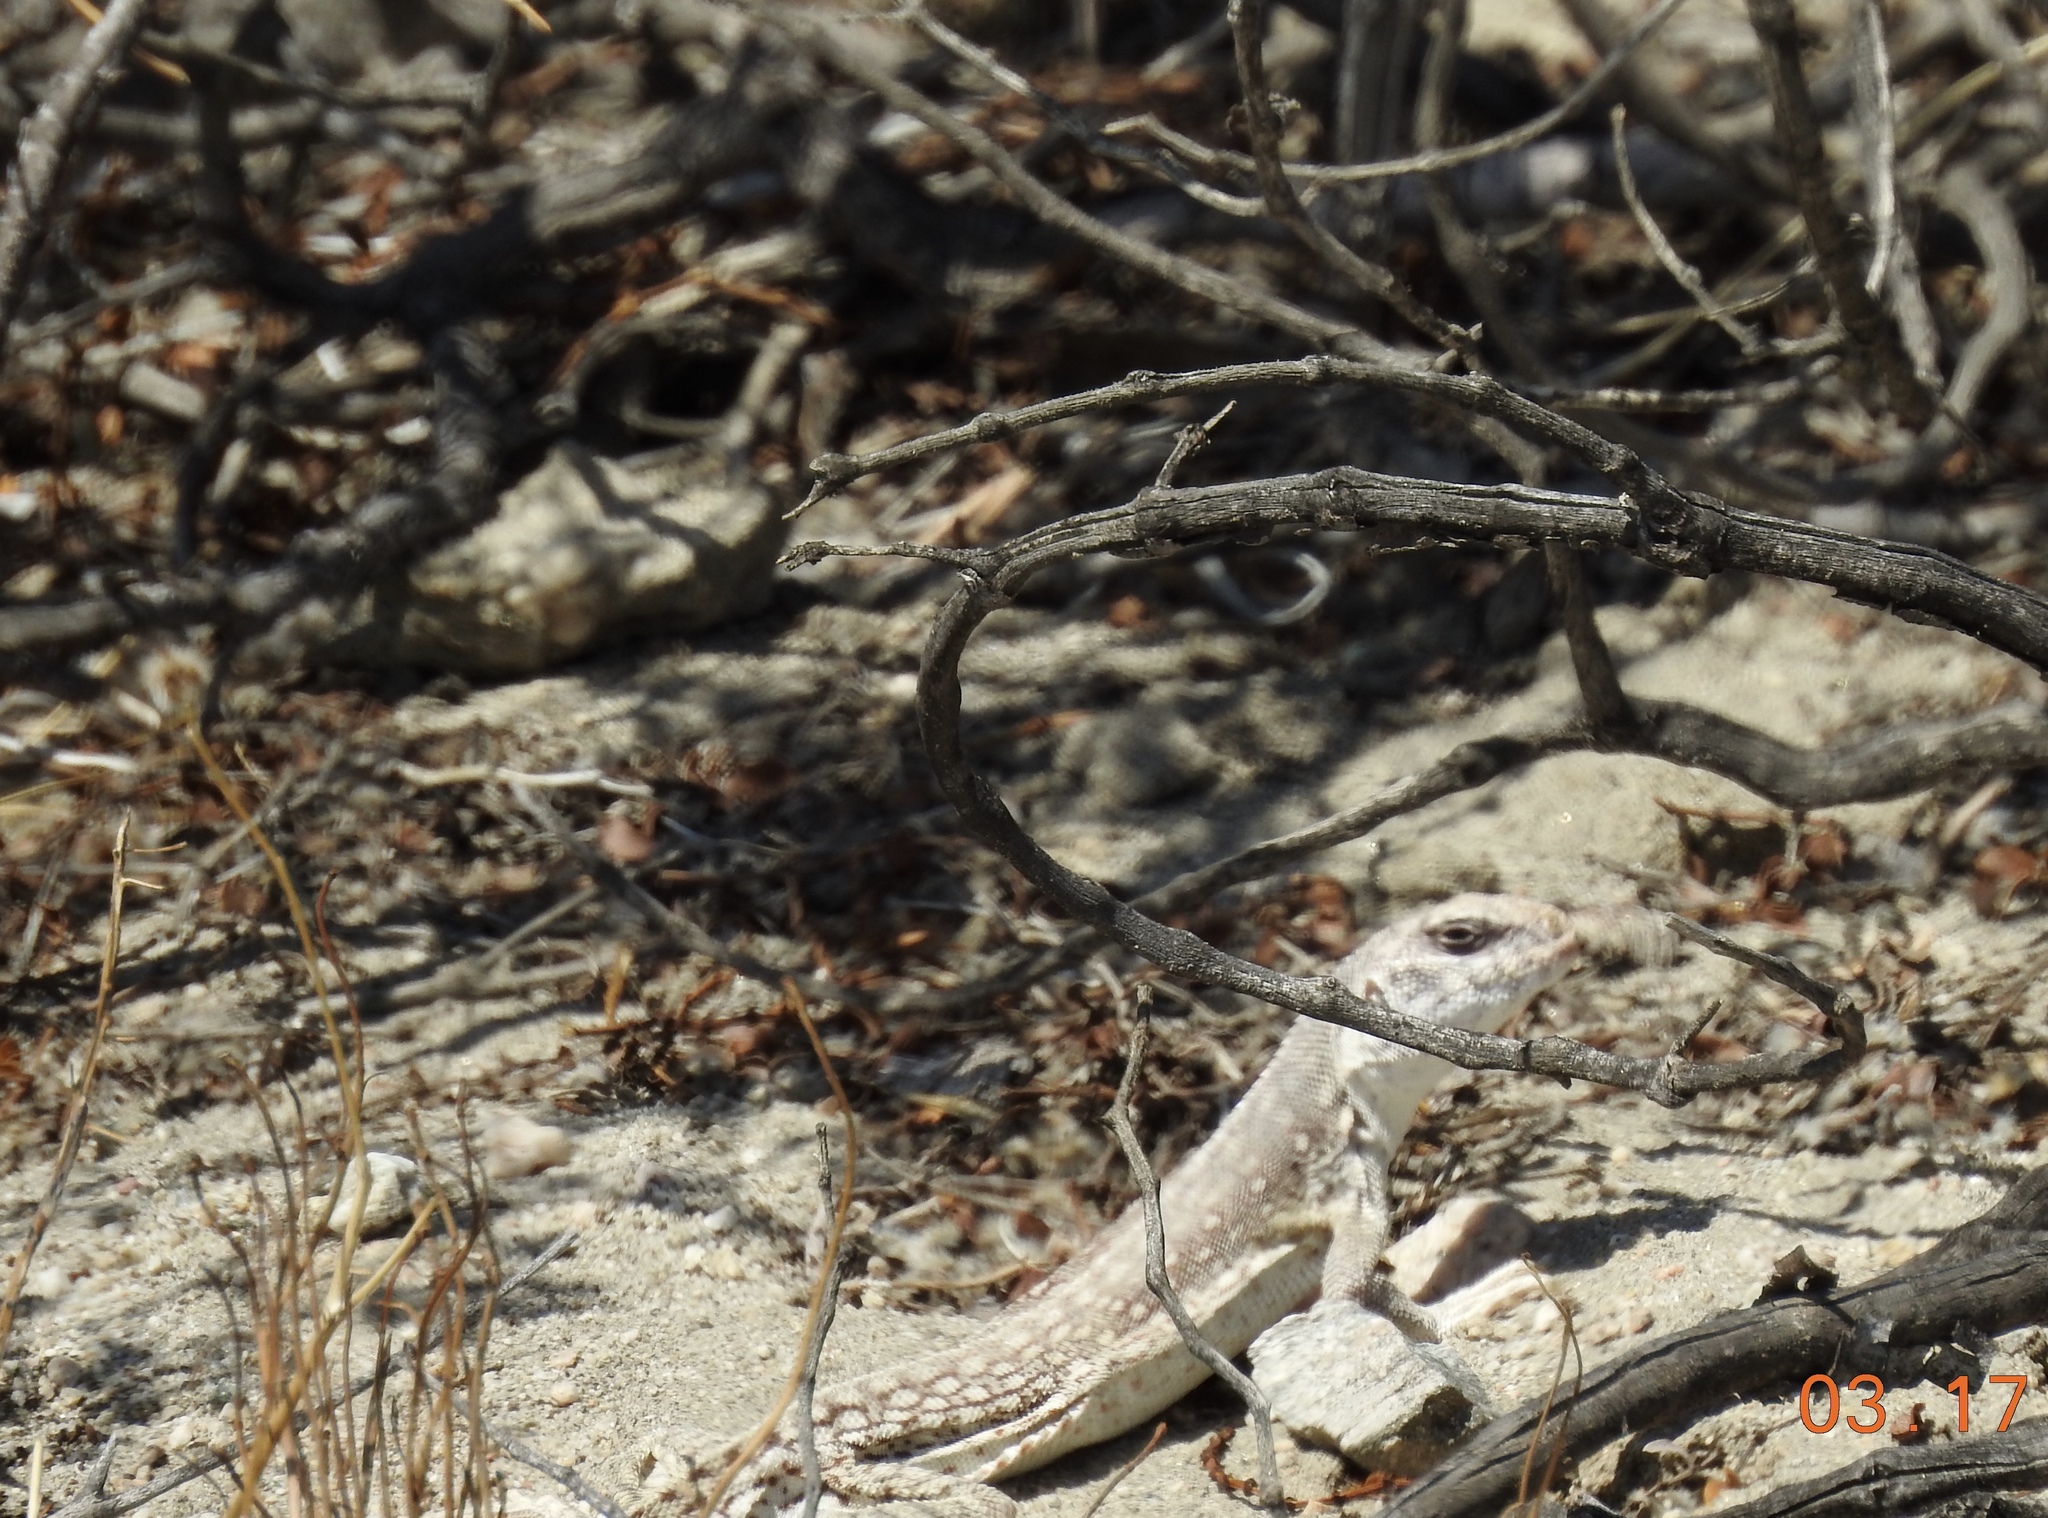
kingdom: Animalia
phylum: Chordata
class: Squamata
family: Iguanidae
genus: Dipsosaurus
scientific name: Dipsosaurus dorsalis
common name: Desert iguana
